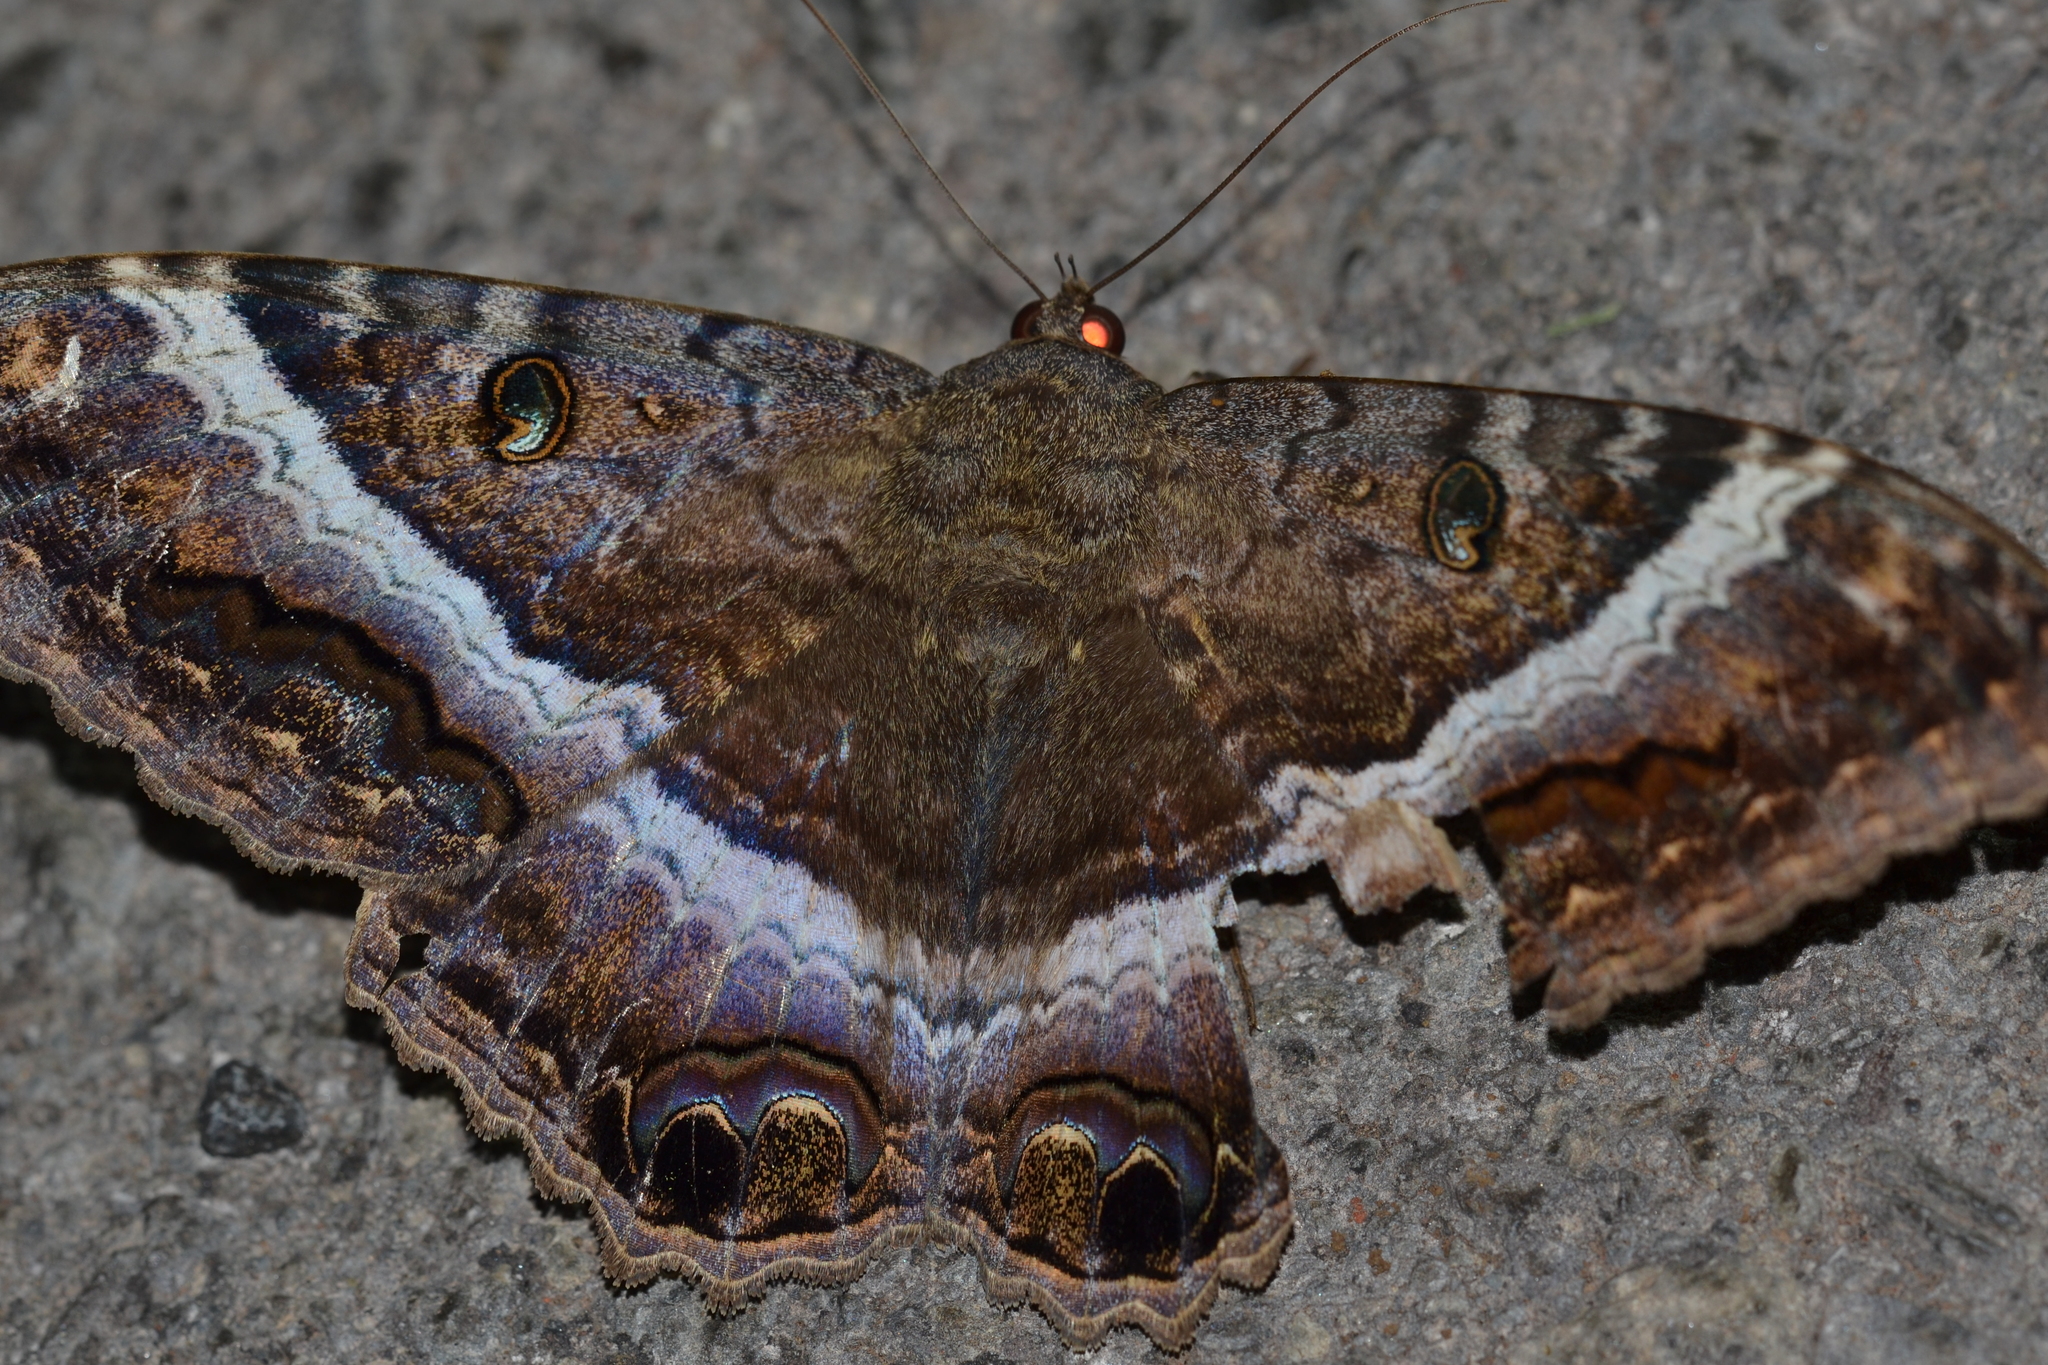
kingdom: Animalia
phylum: Arthropoda
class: Insecta
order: Lepidoptera
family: Erebidae
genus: Ascalapha
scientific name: Ascalapha odorata
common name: Black witch
